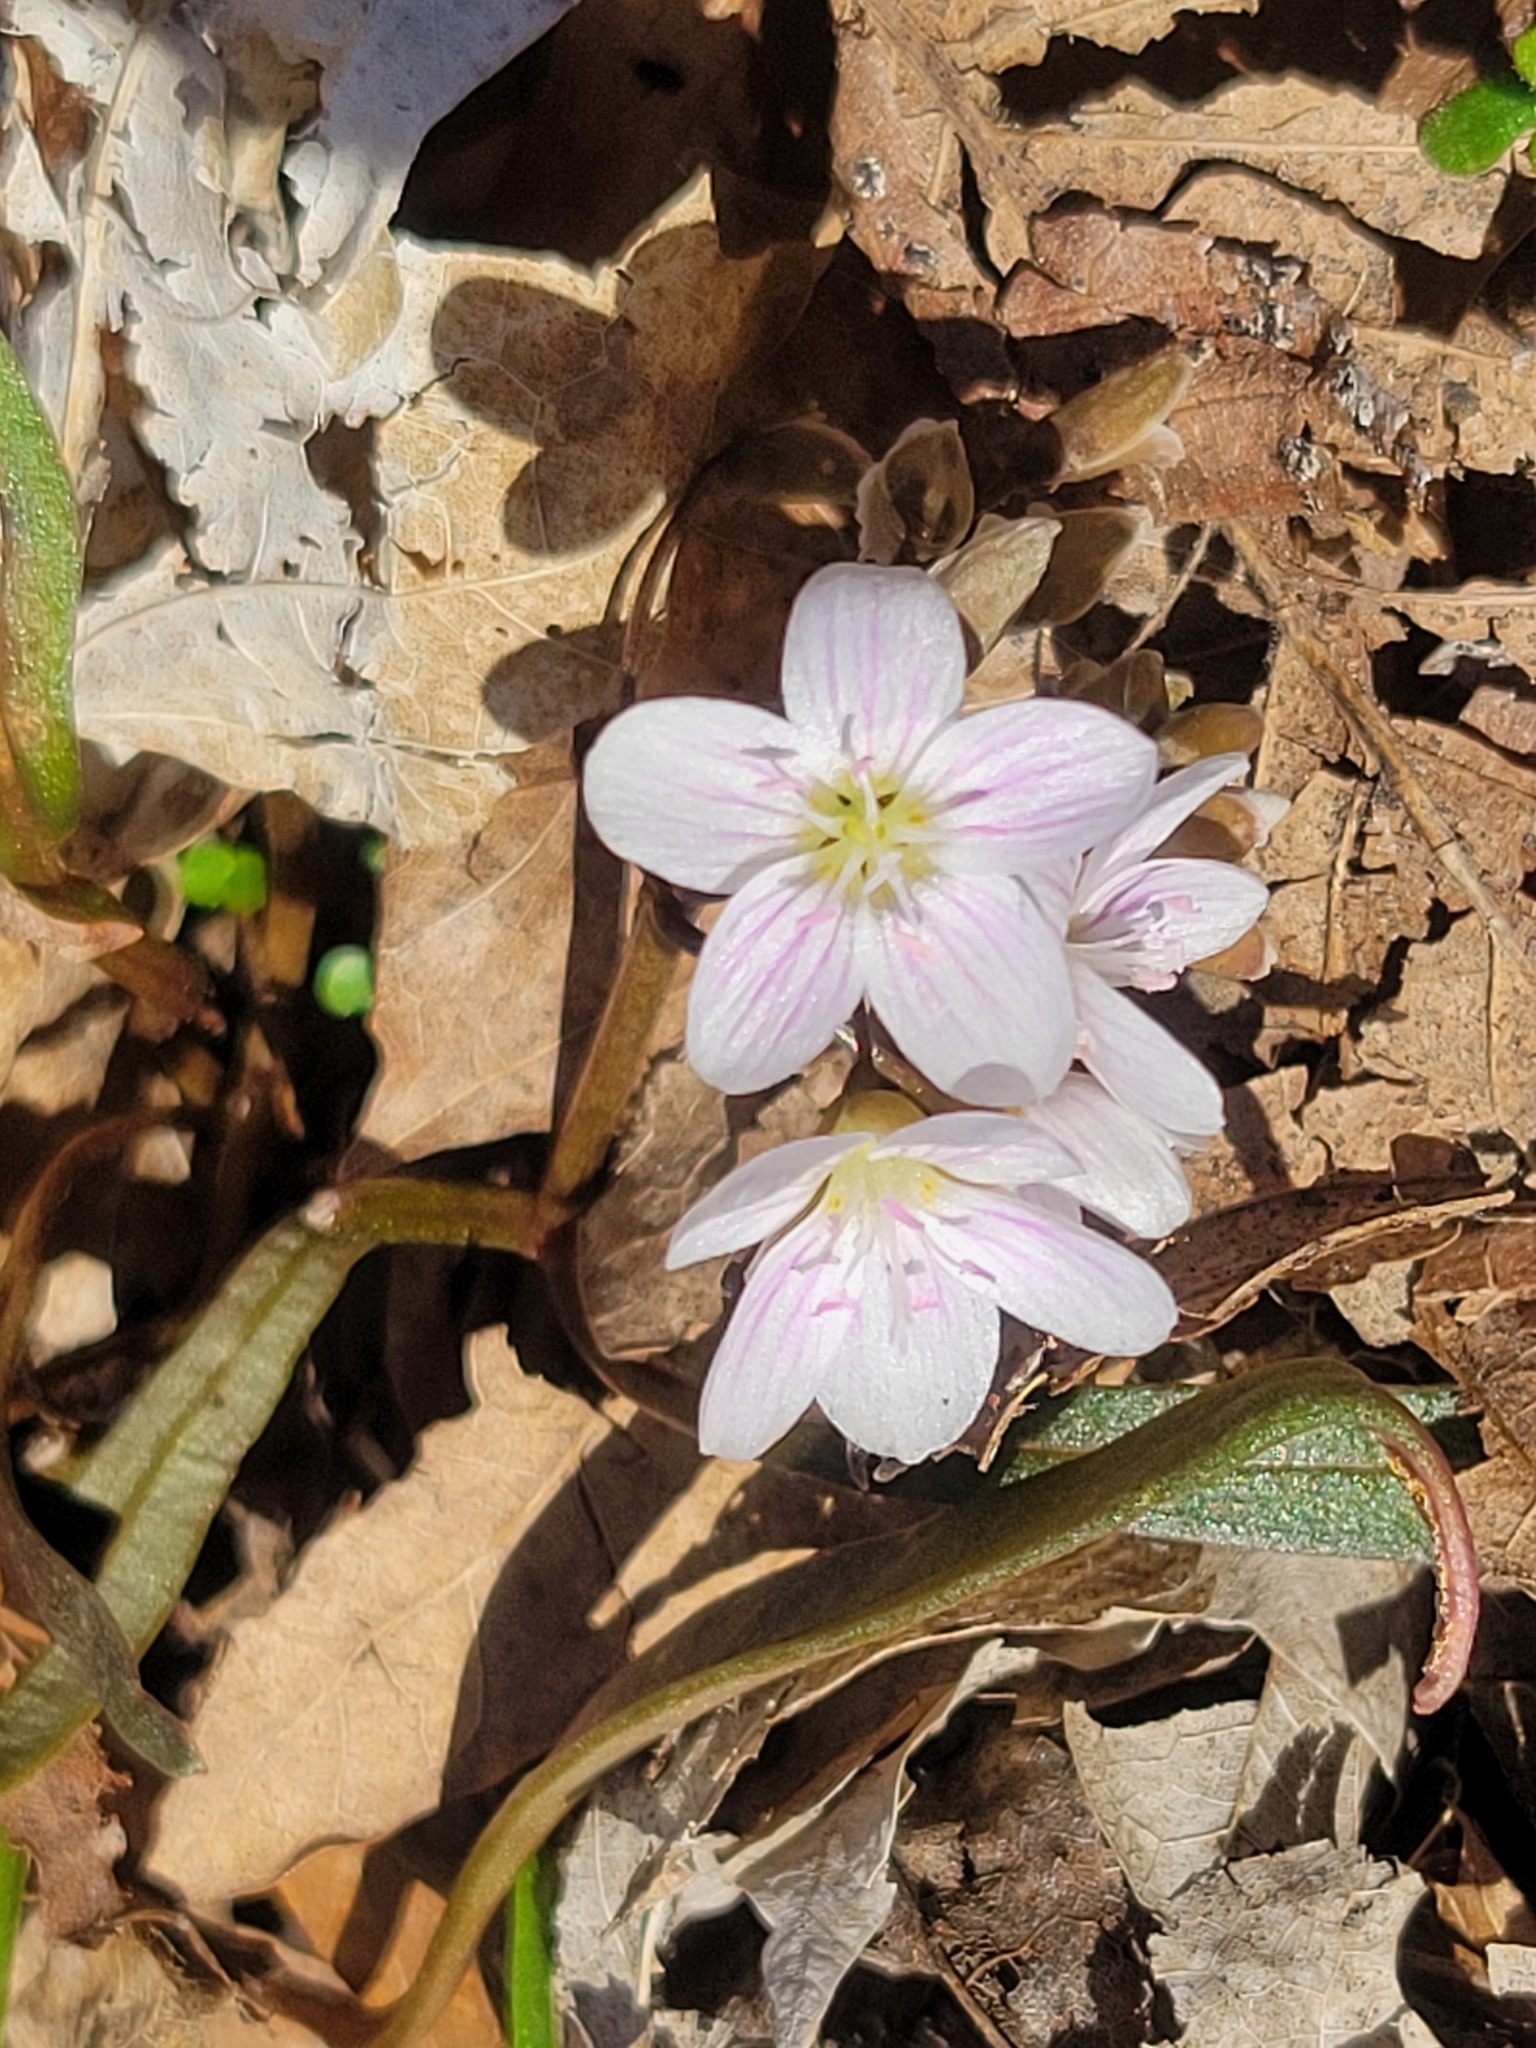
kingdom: Plantae
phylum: Tracheophyta
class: Magnoliopsida
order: Caryophyllales
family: Montiaceae
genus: Claytonia
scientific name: Claytonia virginica
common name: Virginia springbeauty
